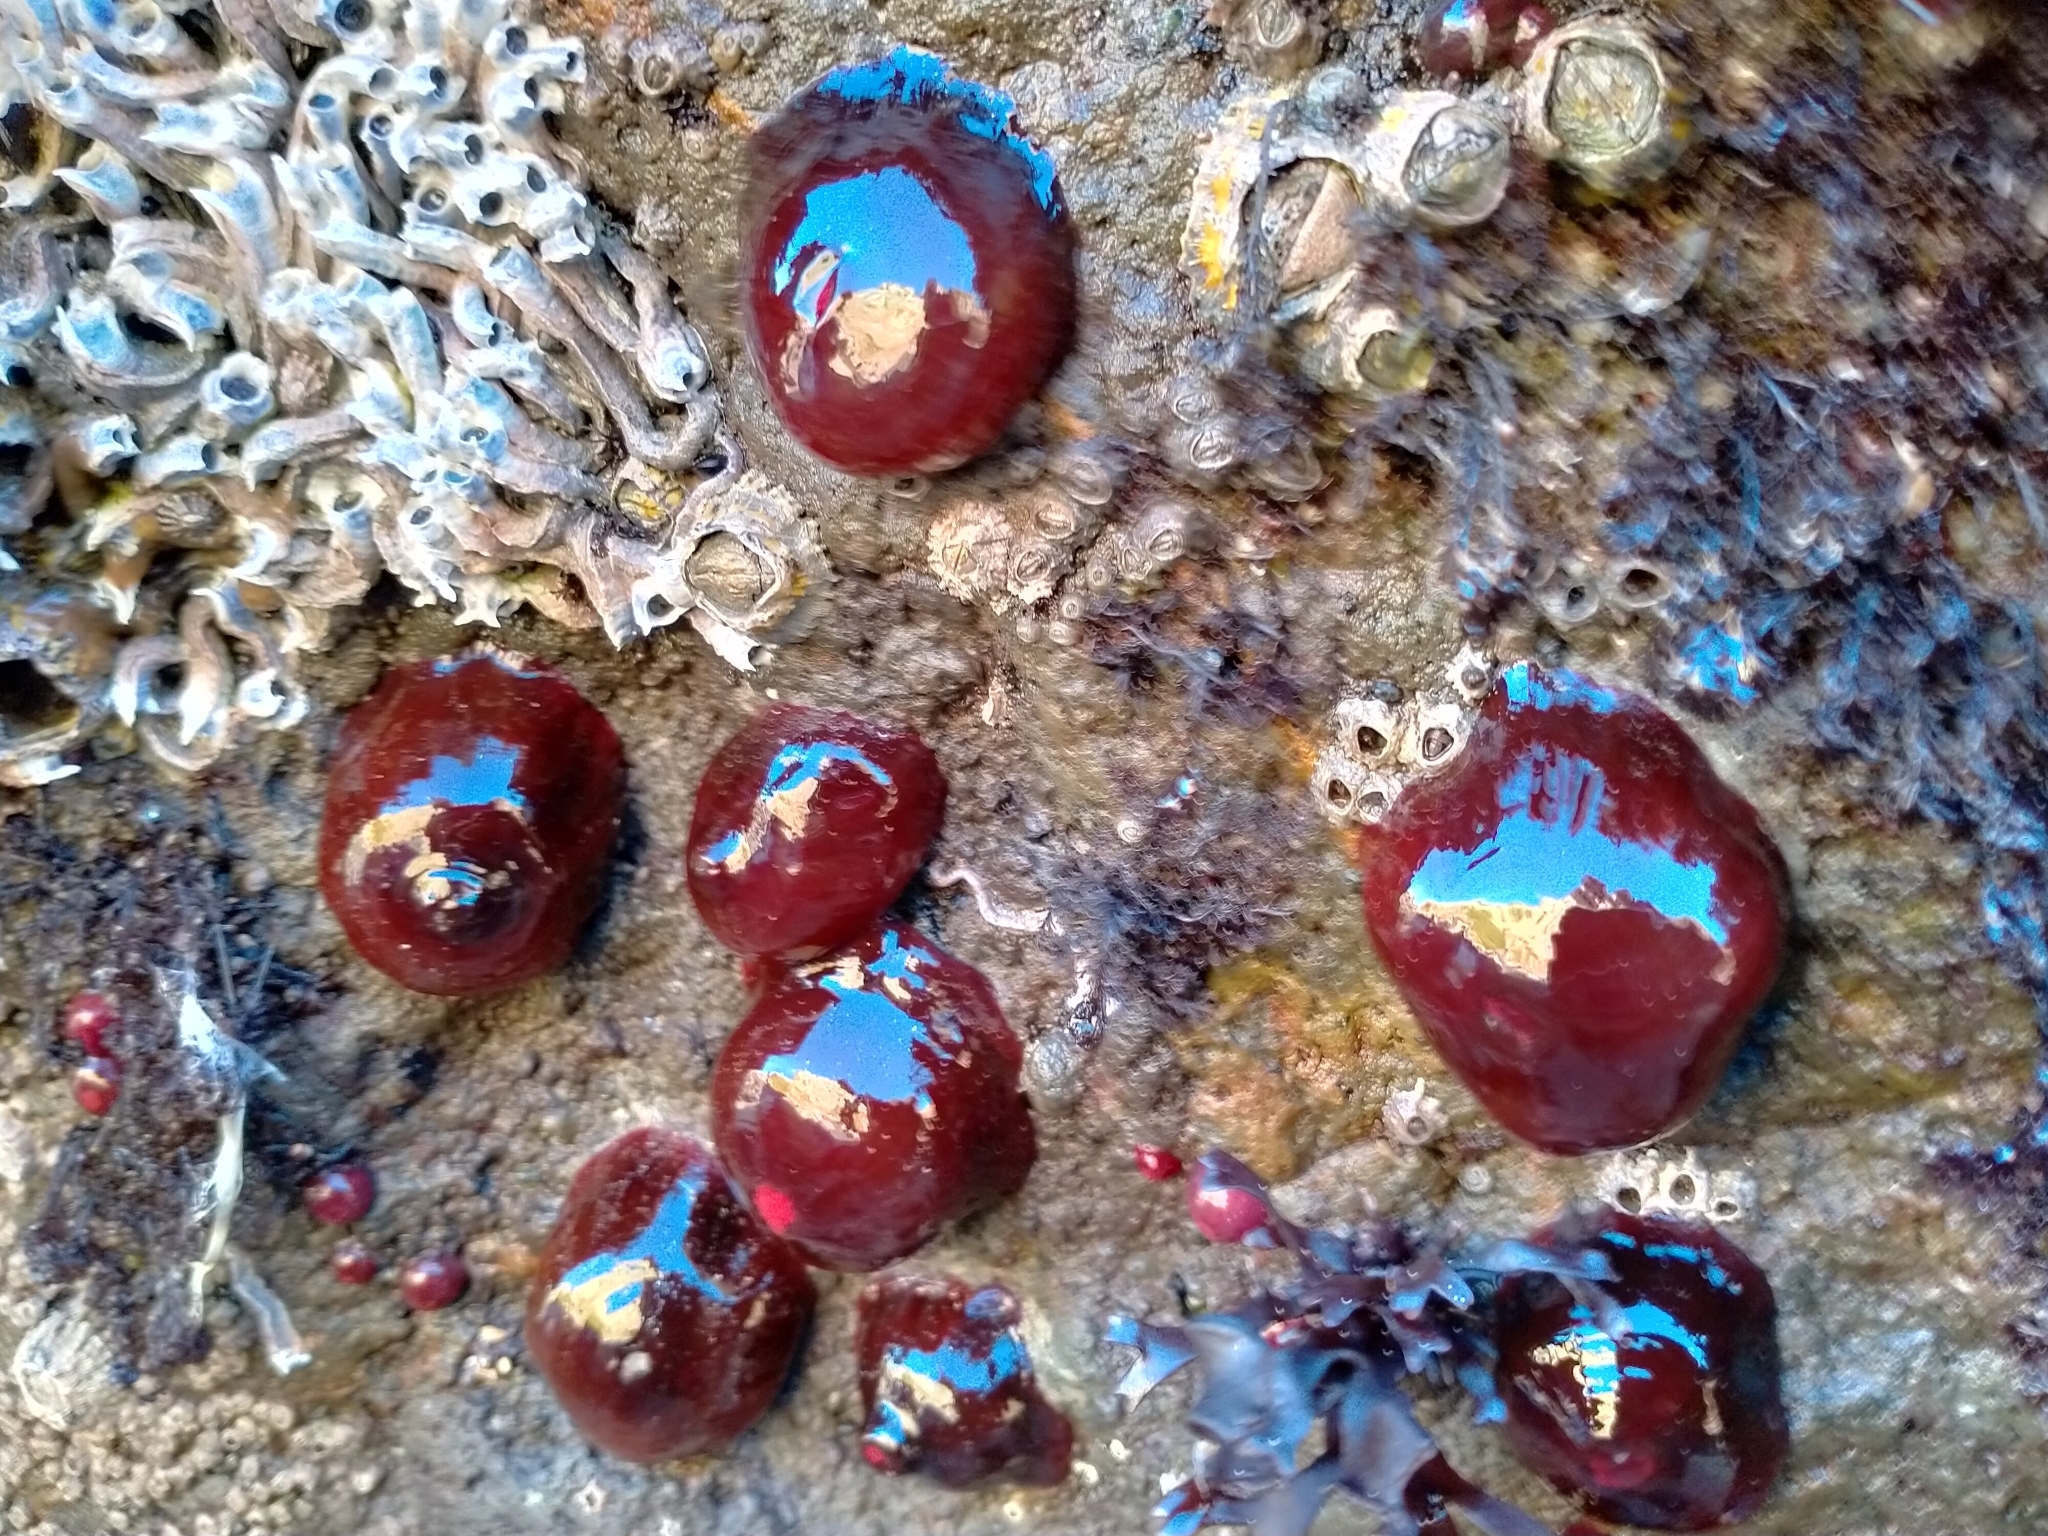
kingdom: Animalia
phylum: Cnidaria
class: Anthozoa
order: Actiniaria
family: Actiniidae
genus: Actinia
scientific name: Actinia tenebrosa
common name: Waratah anemone
